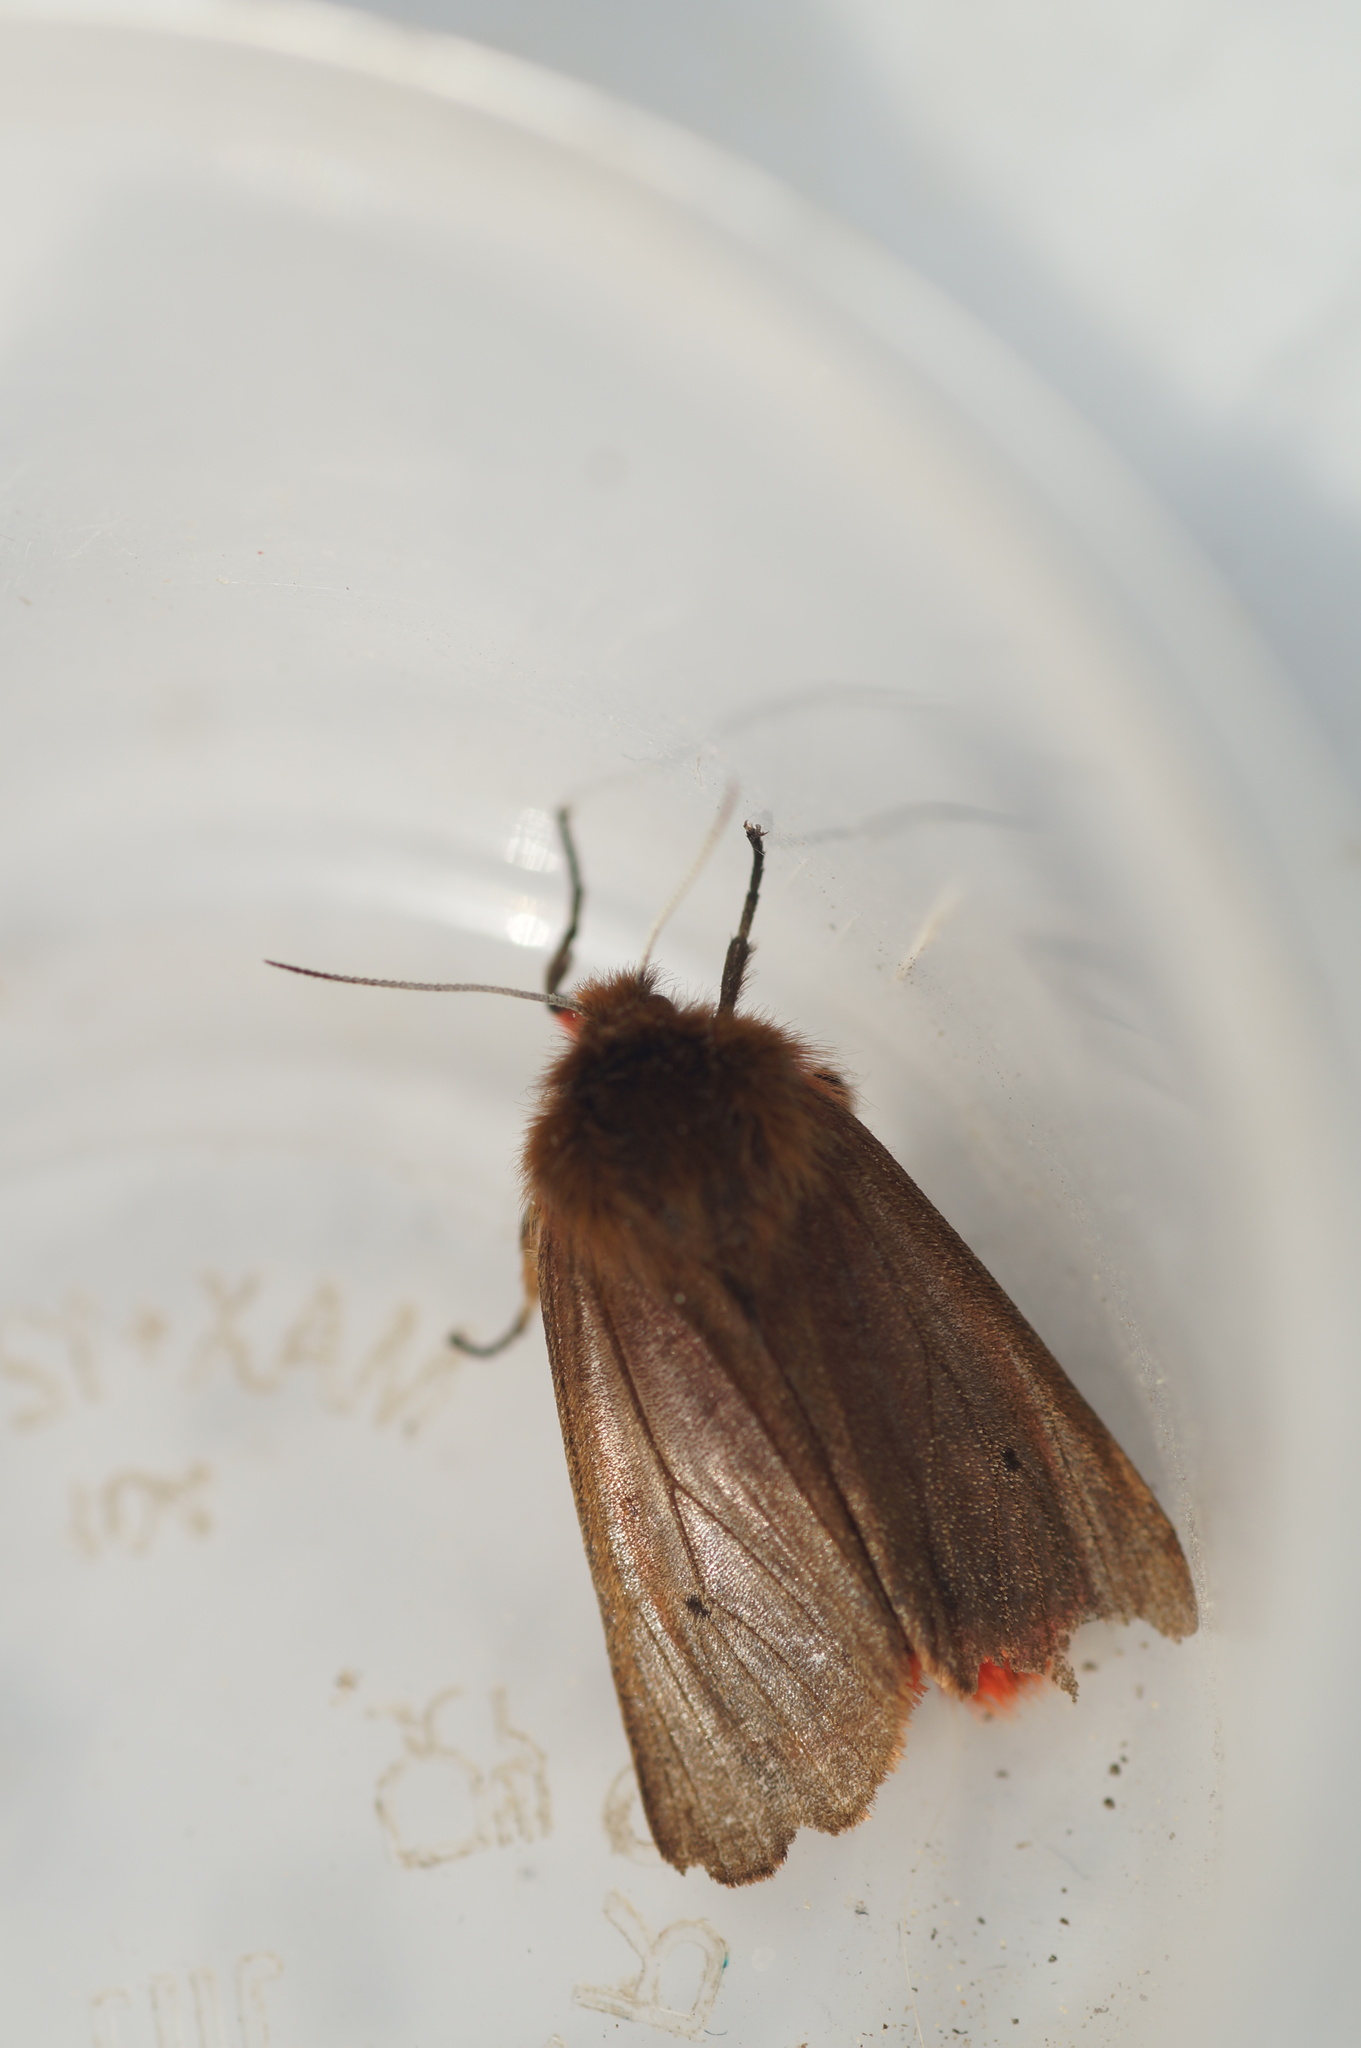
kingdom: Animalia
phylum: Arthropoda
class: Insecta
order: Lepidoptera
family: Erebidae
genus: Phragmatobia
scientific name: Phragmatobia fuliginosa
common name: Ruby tiger
